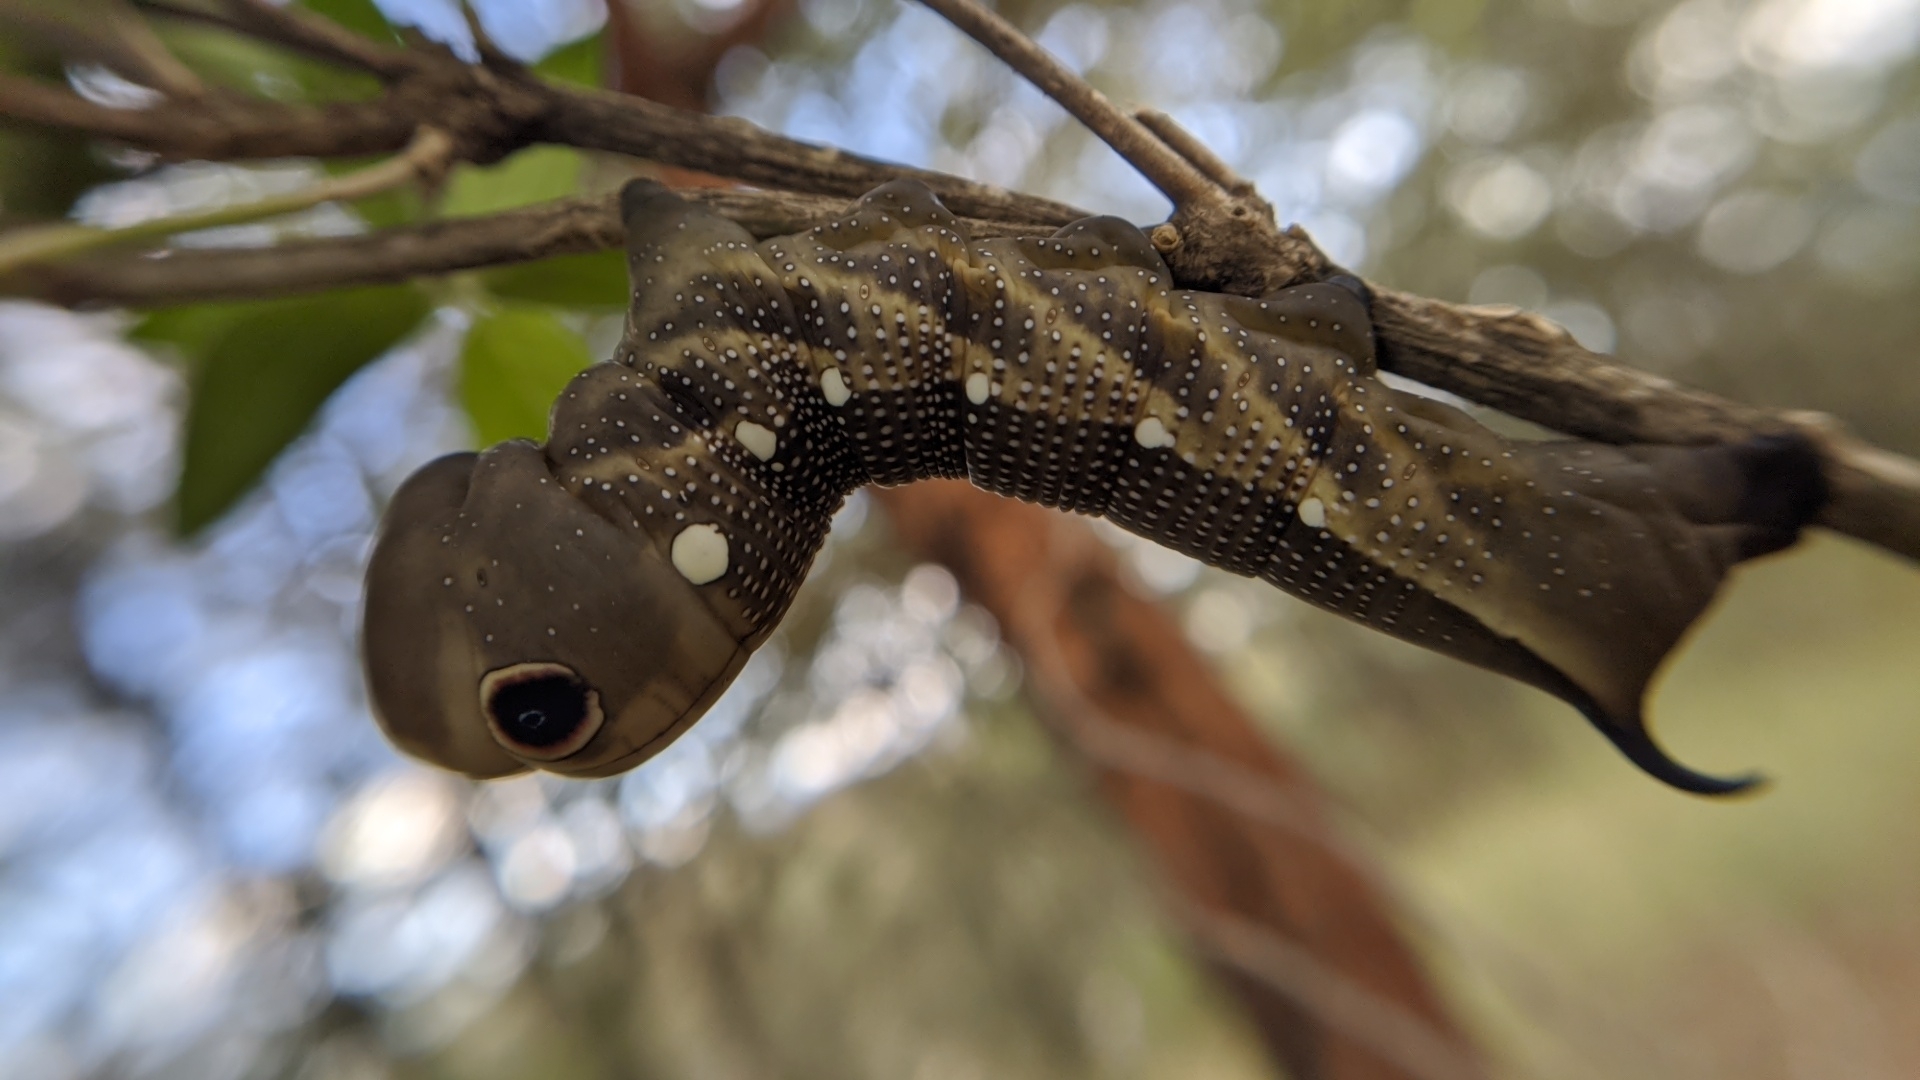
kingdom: Animalia
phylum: Arthropoda
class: Insecta
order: Lepidoptera
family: Sphingidae
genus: Xylophanes
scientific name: Xylophanes falco
